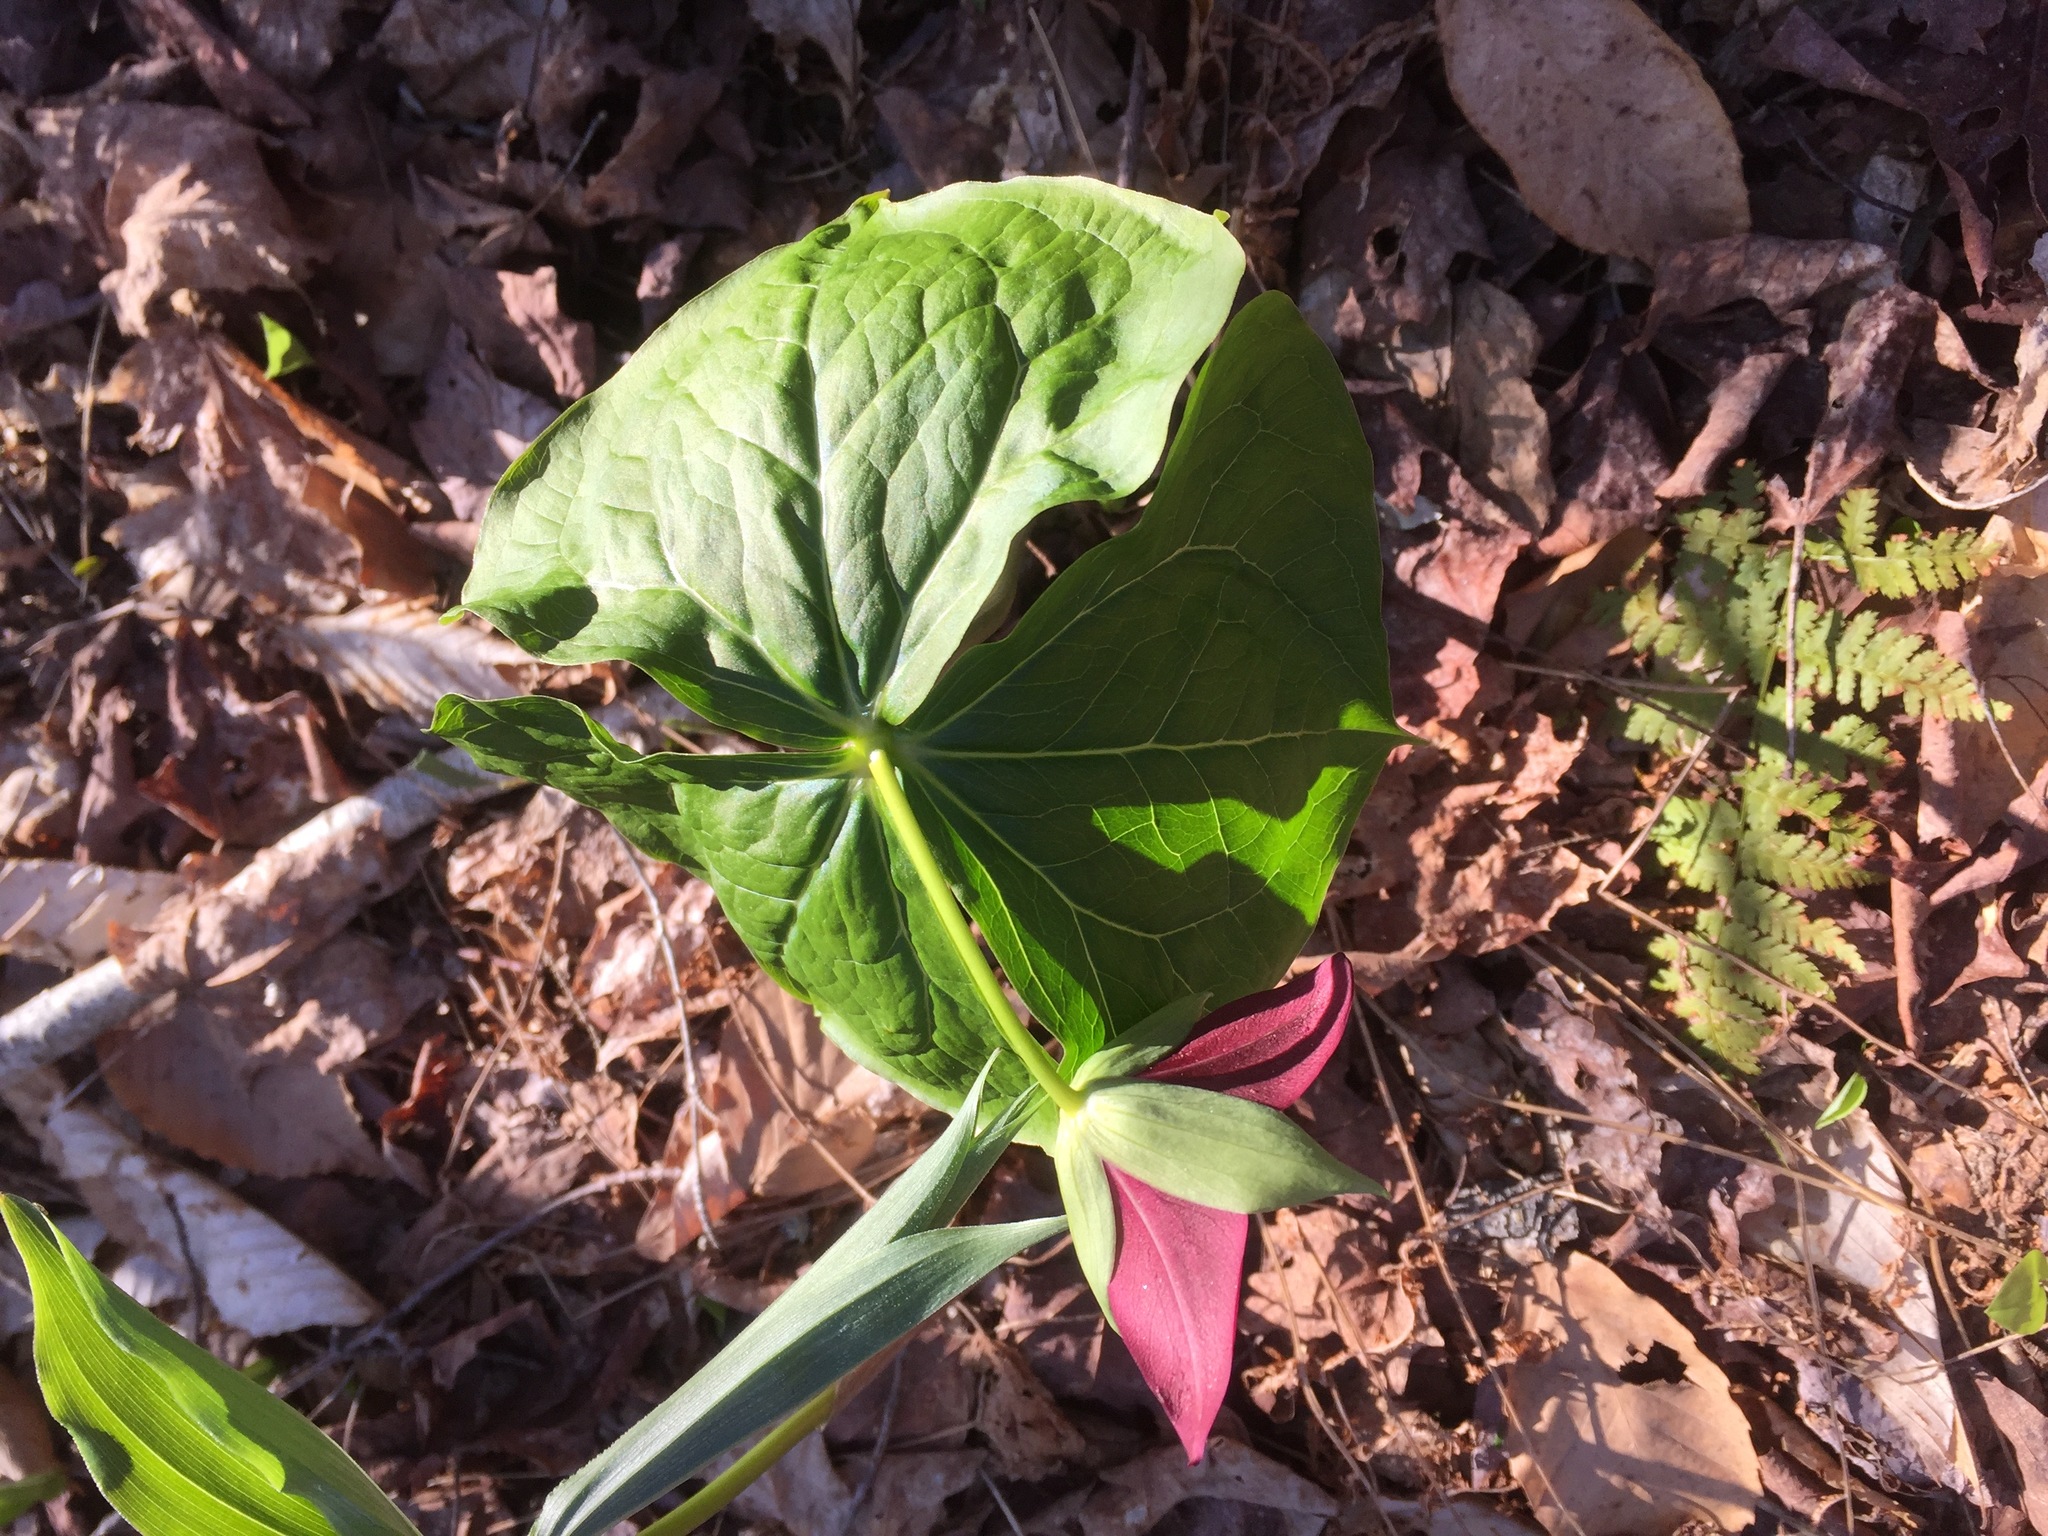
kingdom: Plantae
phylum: Tracheophyta
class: Liliopsida
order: Liliales
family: Melanthiaceae
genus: Trillium
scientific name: Trillium erectum
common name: Purple trillium
